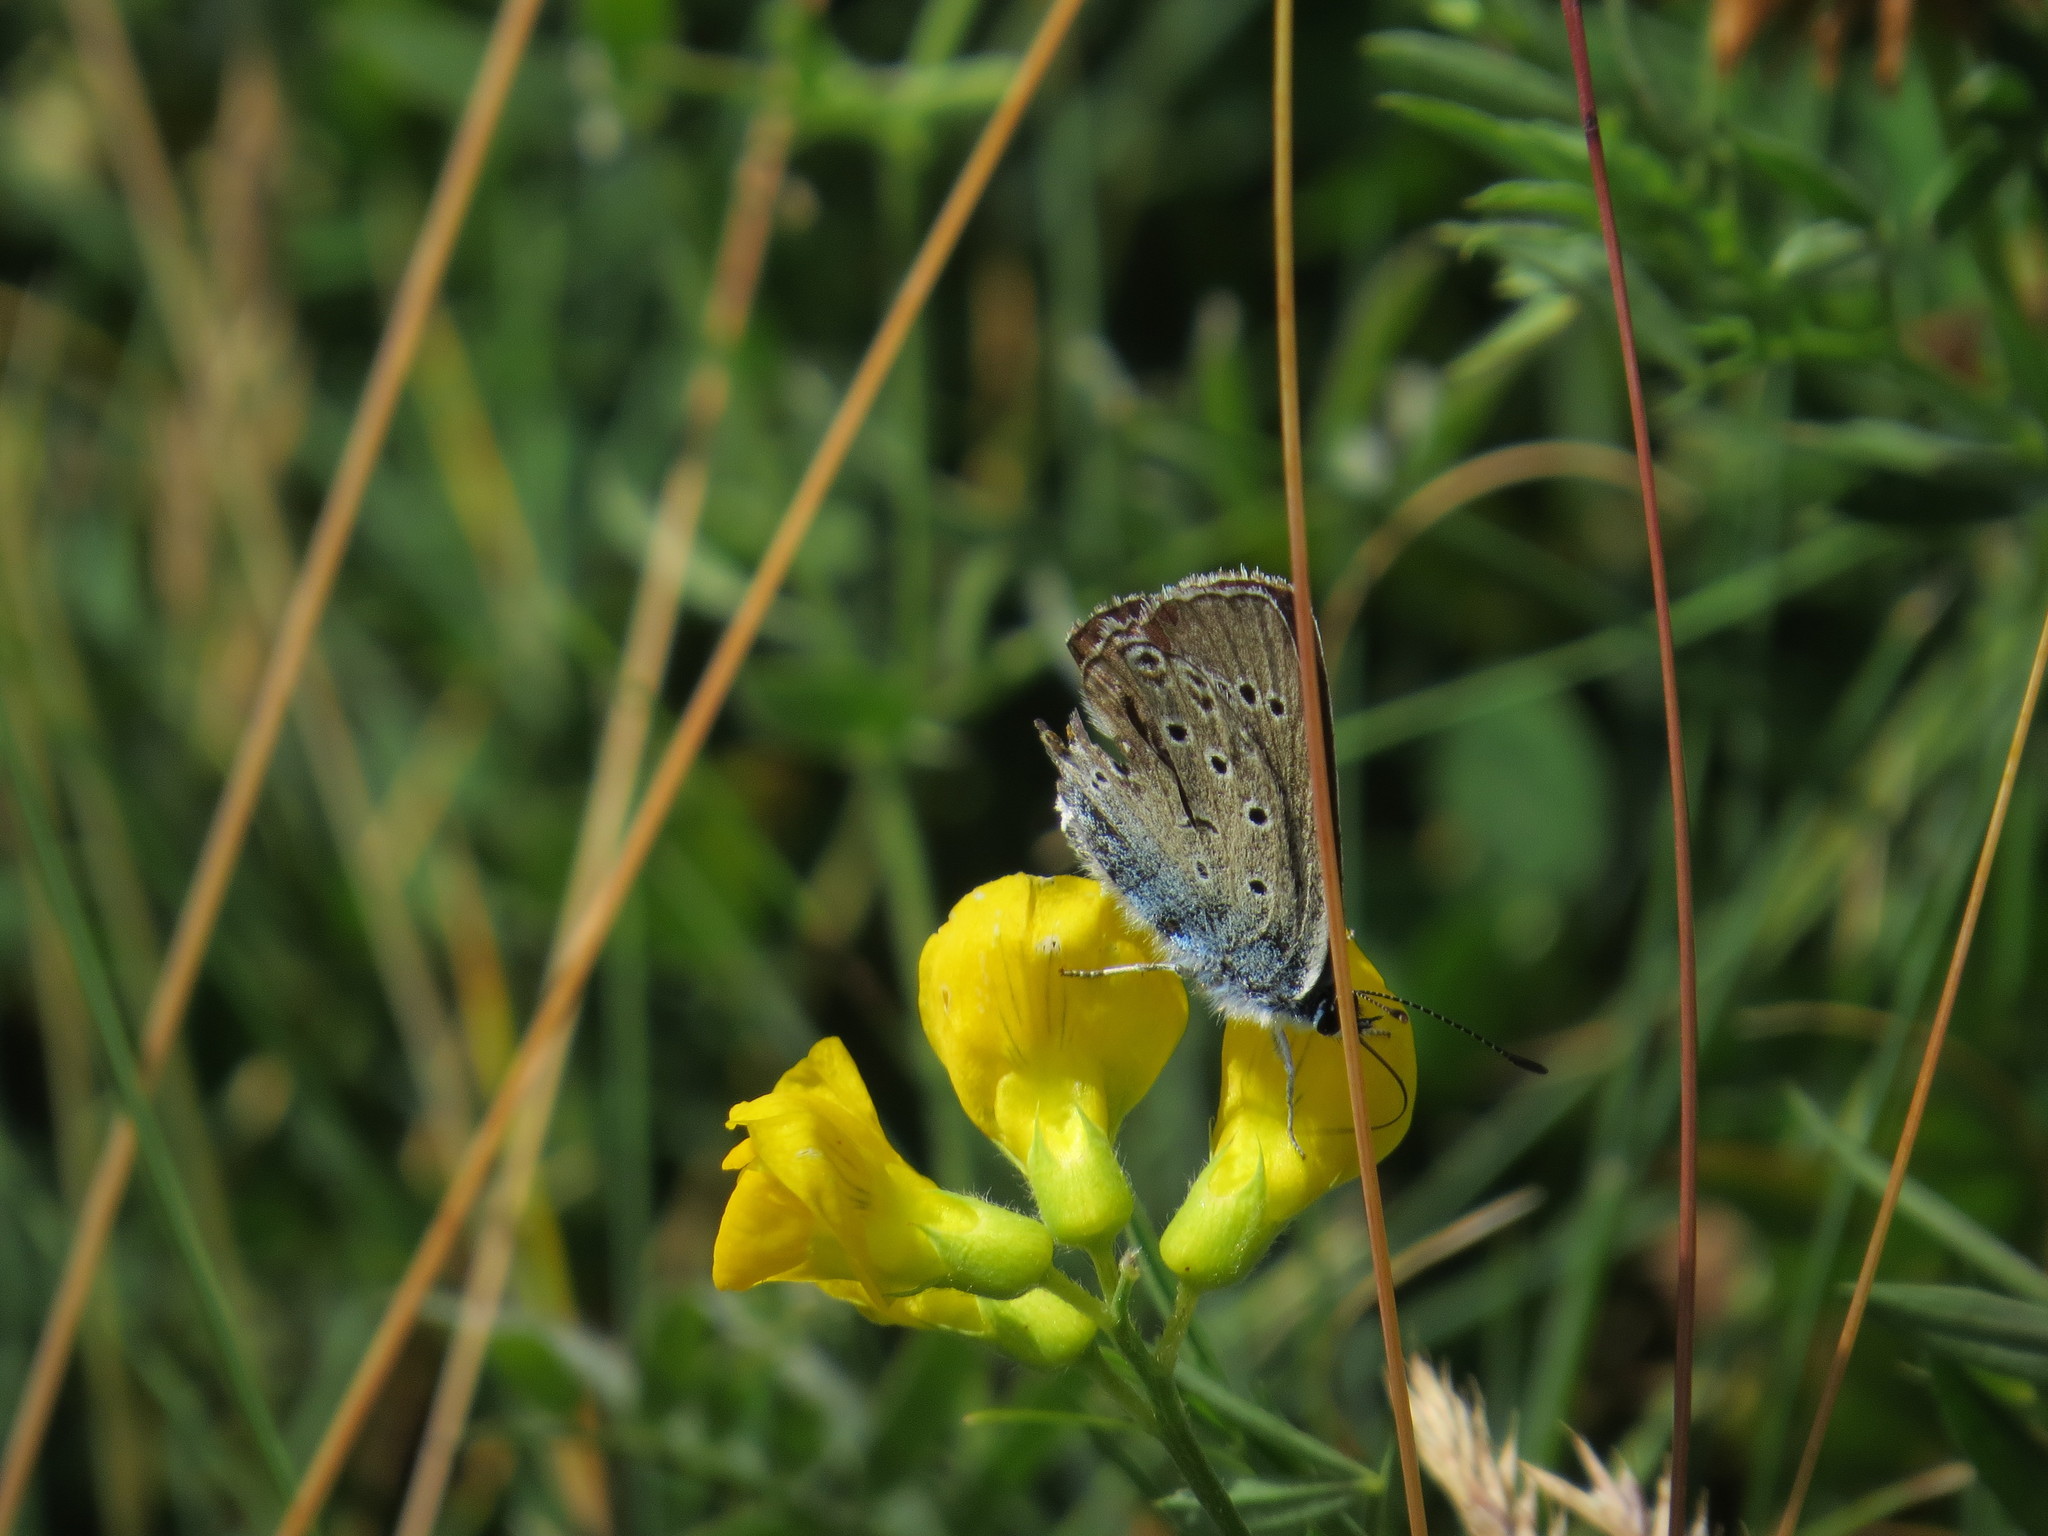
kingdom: Animalia
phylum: Arthropoda
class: Insecta
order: Lepidoptera
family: Lycaenidae
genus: Plebejus
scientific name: Plebejus amanda
